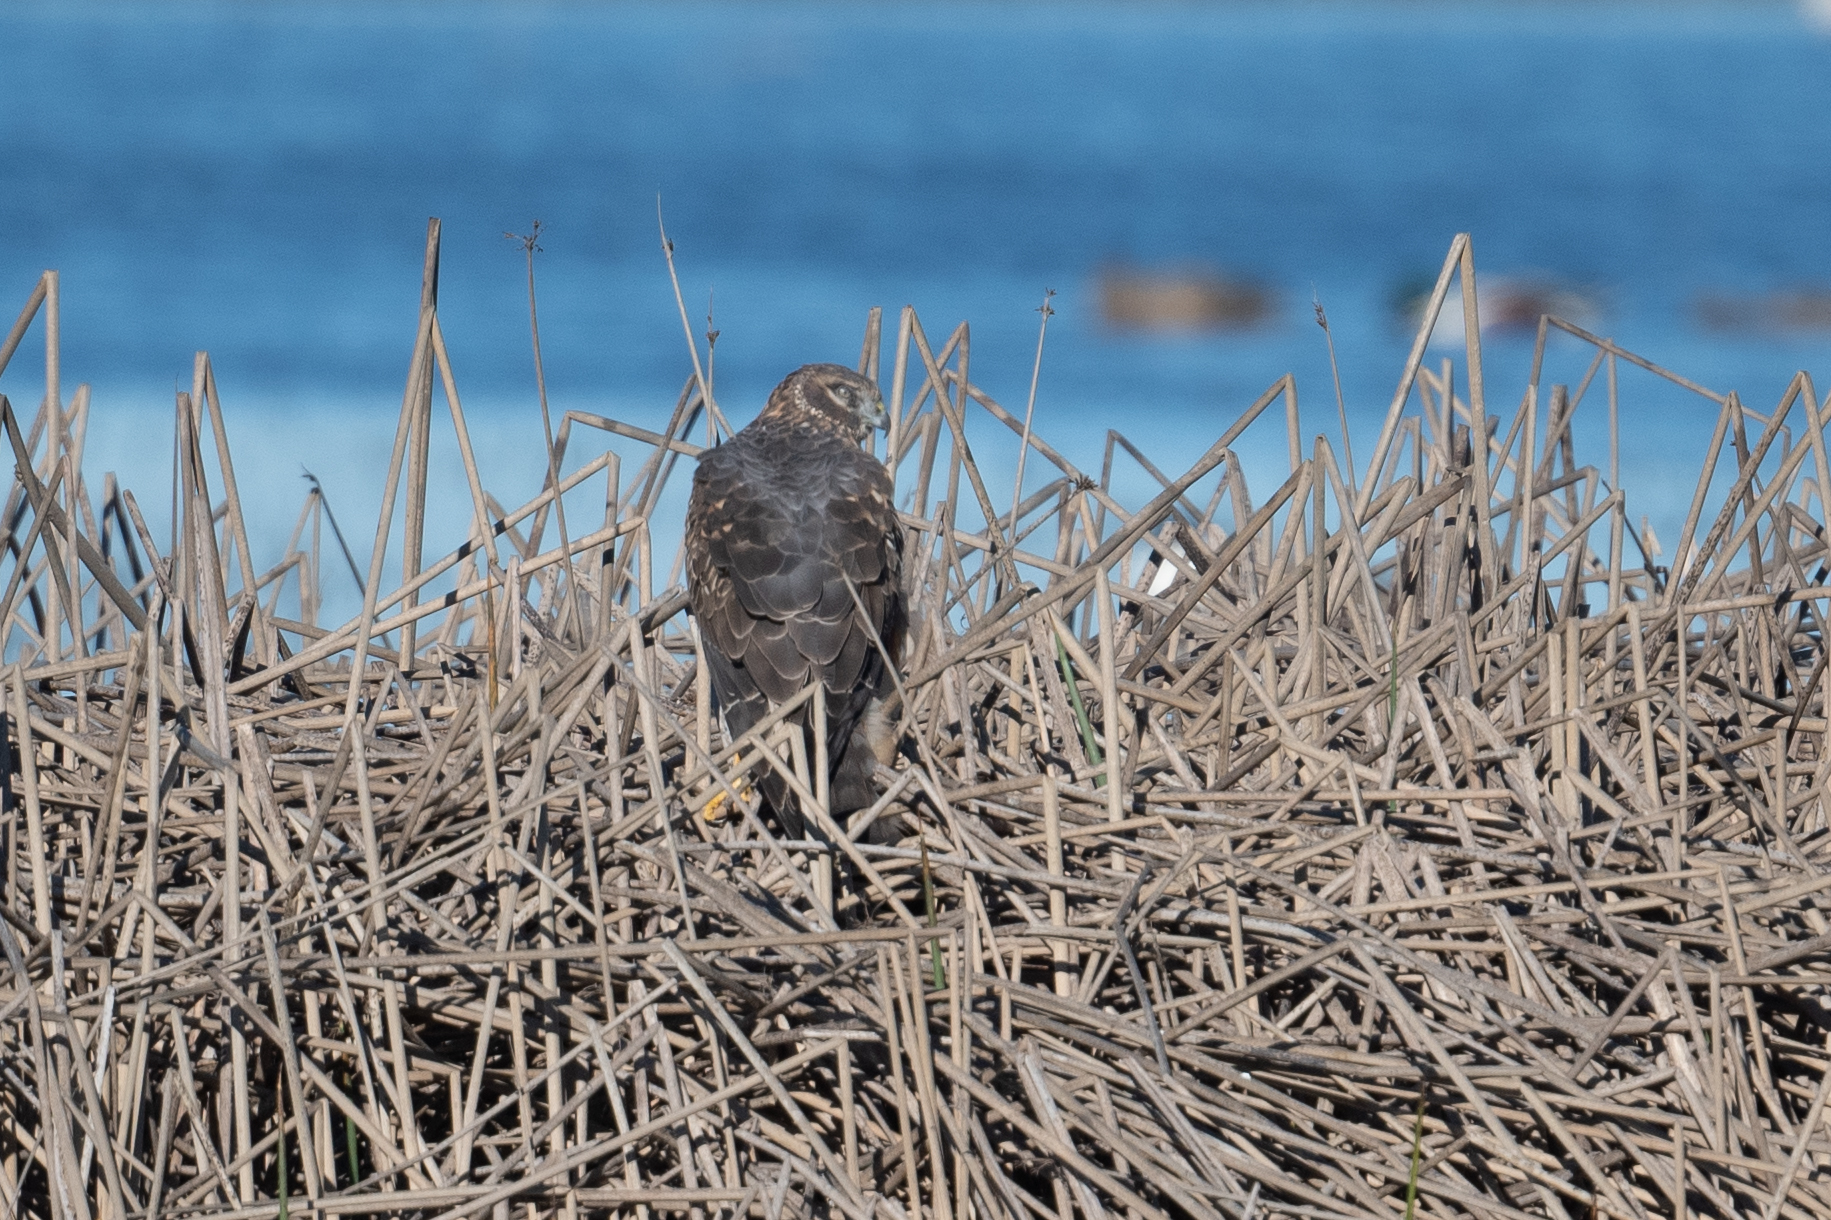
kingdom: Animalia
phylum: Chordata
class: Aves
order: Accipitriformes
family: Accipitridae
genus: Circus
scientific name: Circus cyaneus
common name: Hen harrier
